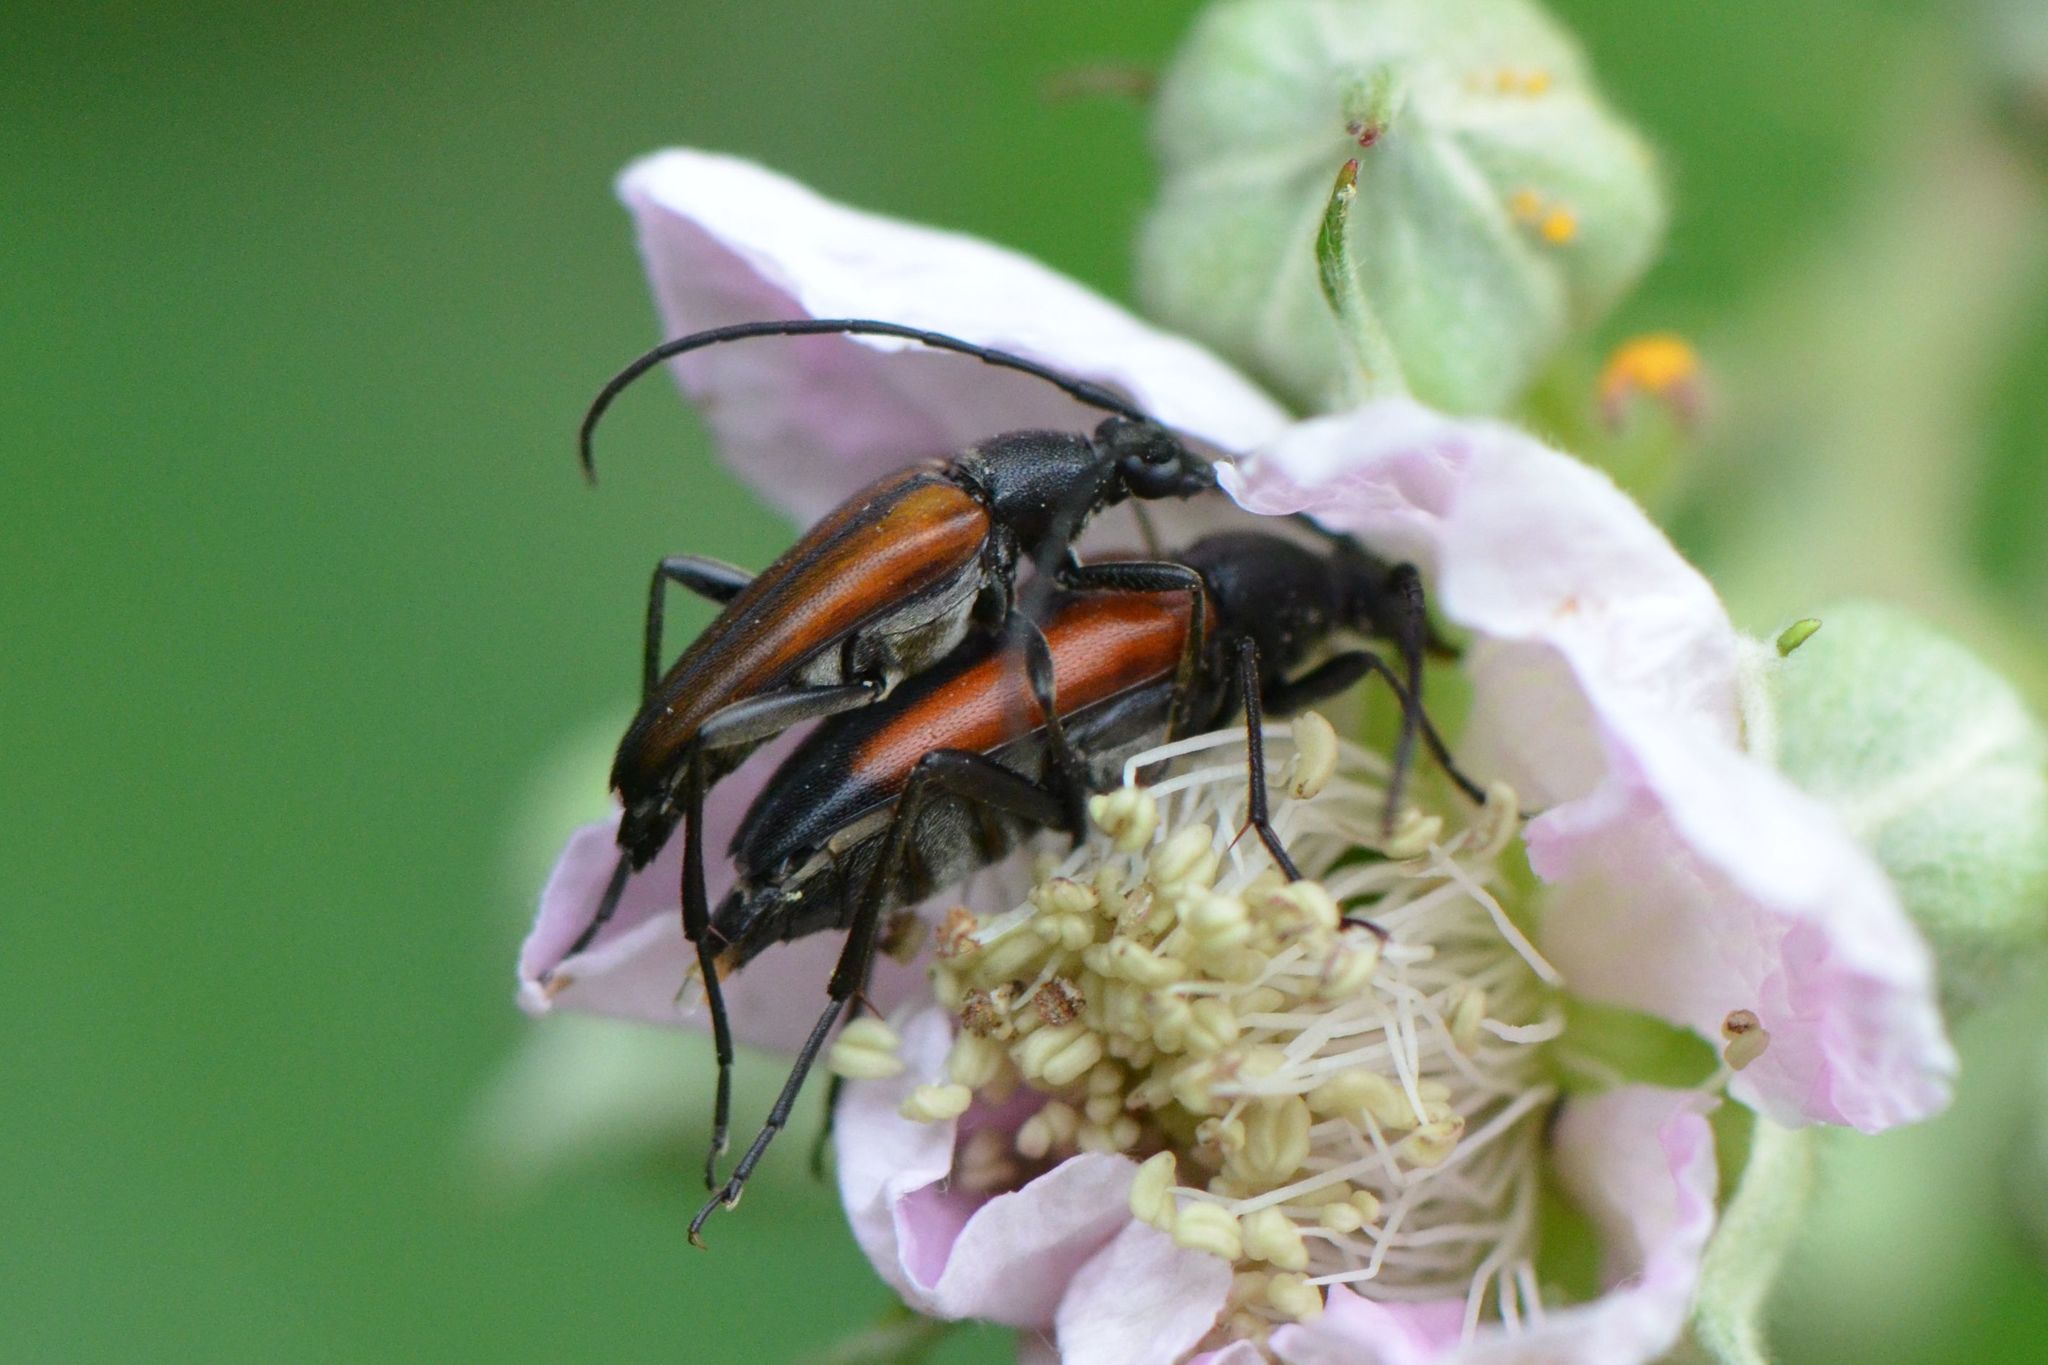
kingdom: Animalia
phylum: Arthropoda
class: Insecta
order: Coleoptera
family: Cerambycidae
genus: Stenurella
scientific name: Stenurella melanura
